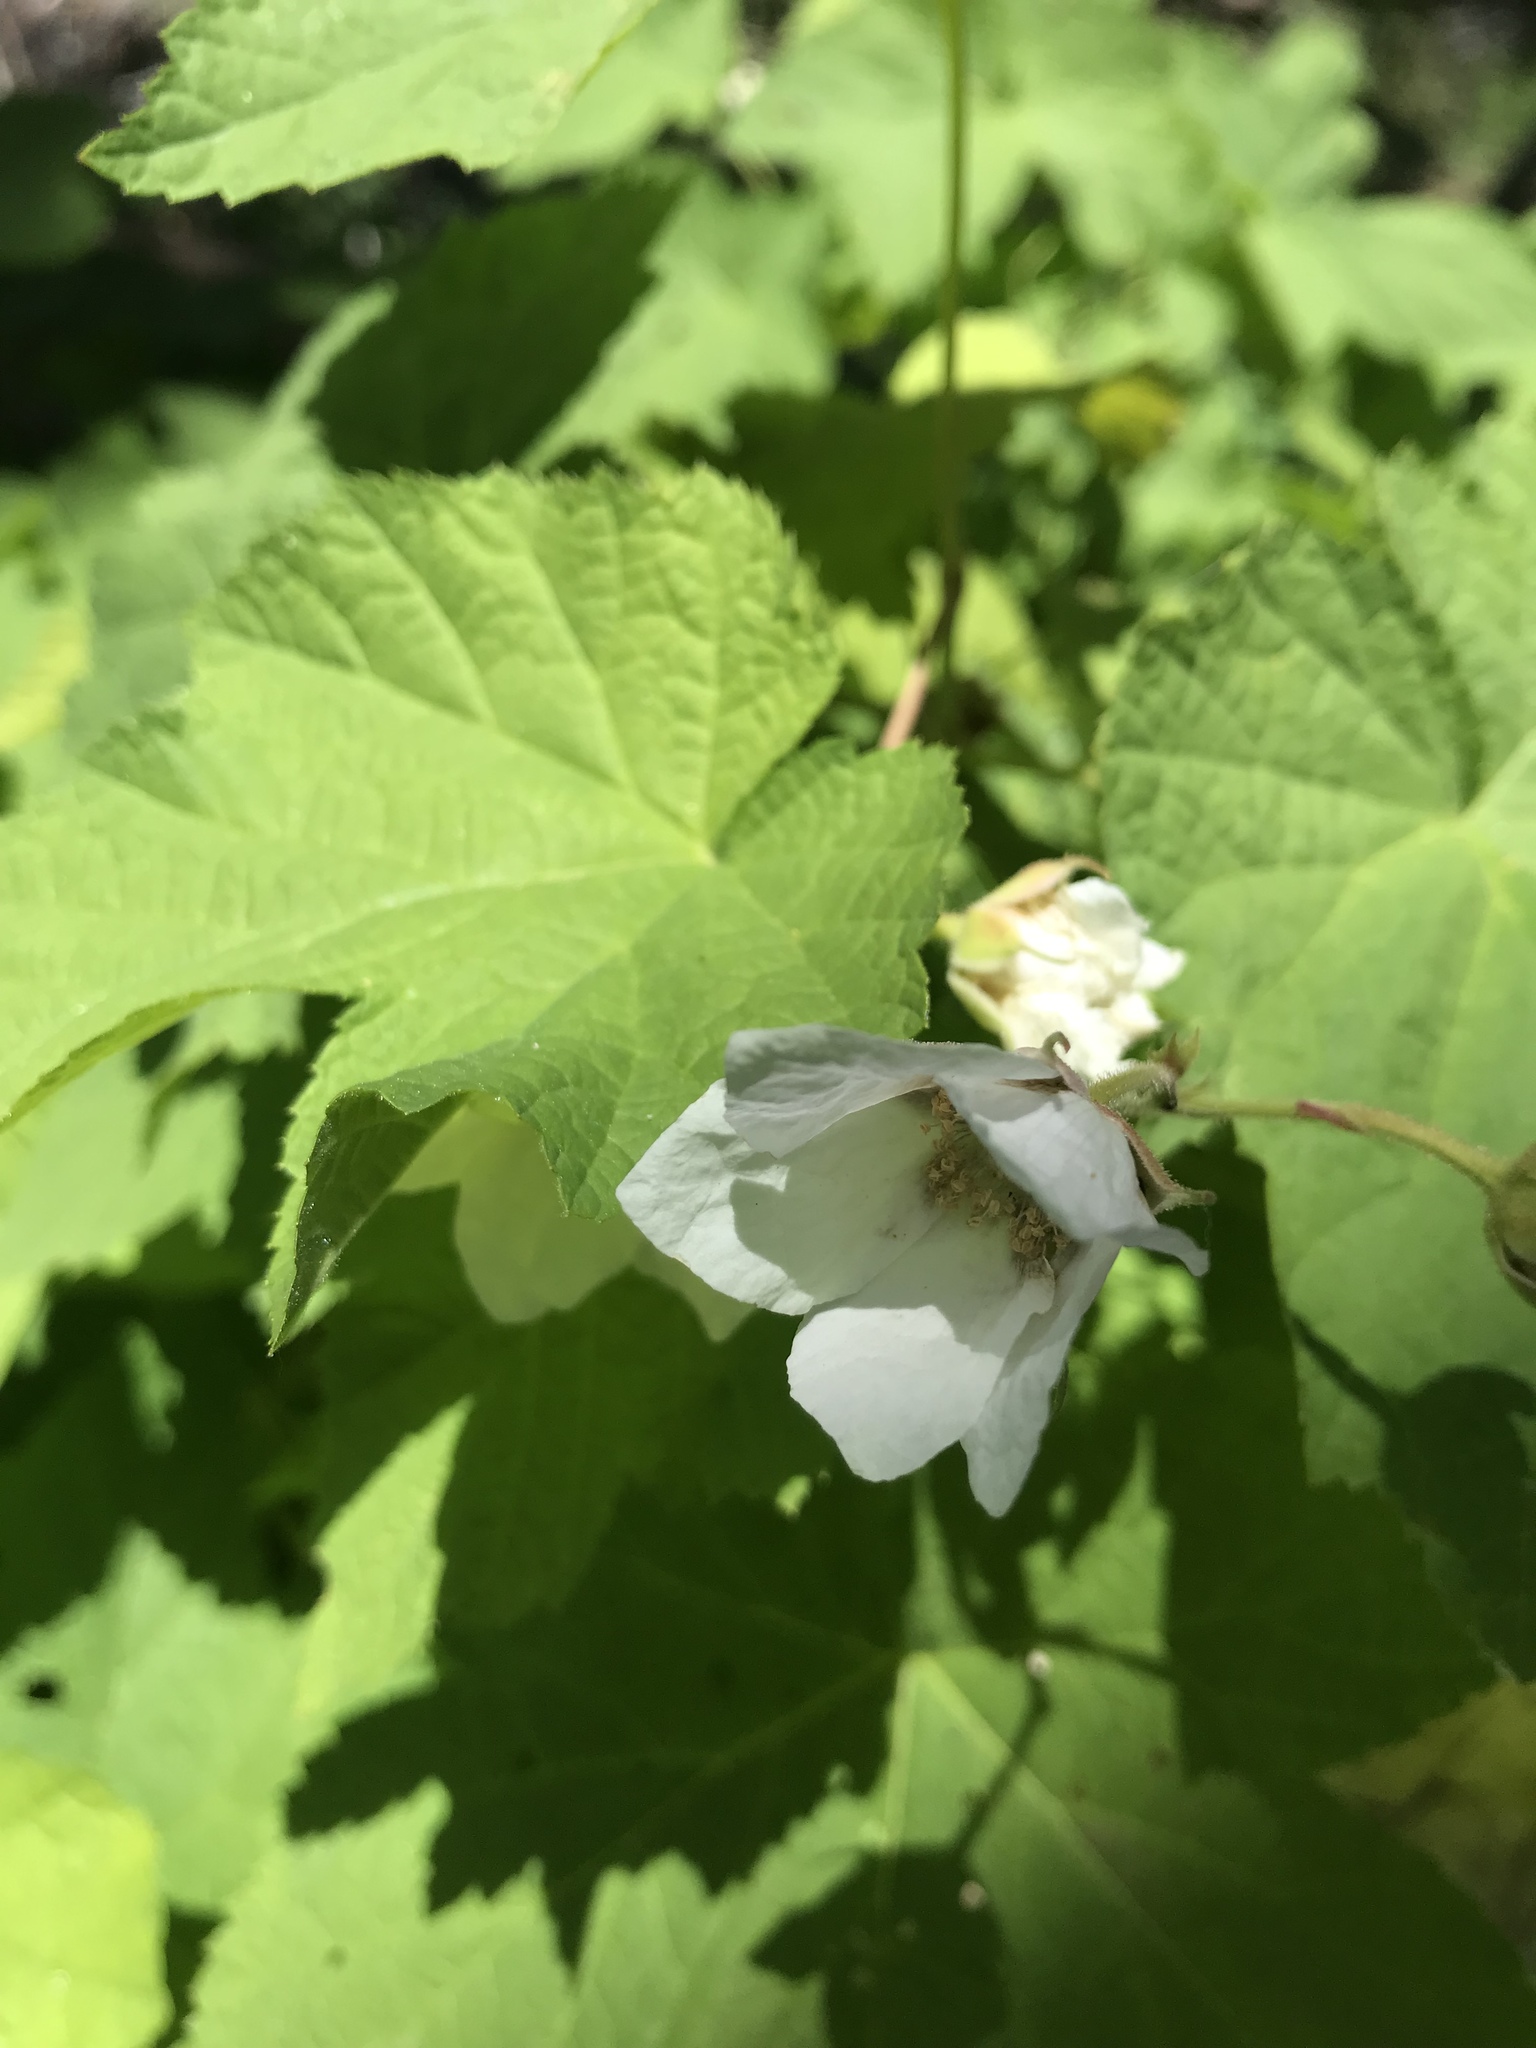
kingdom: Plantae
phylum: Tracheophyta
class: Magnoliopsida
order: Rosales
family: Rosaceae
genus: Rubus
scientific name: Rubus parviflorus
